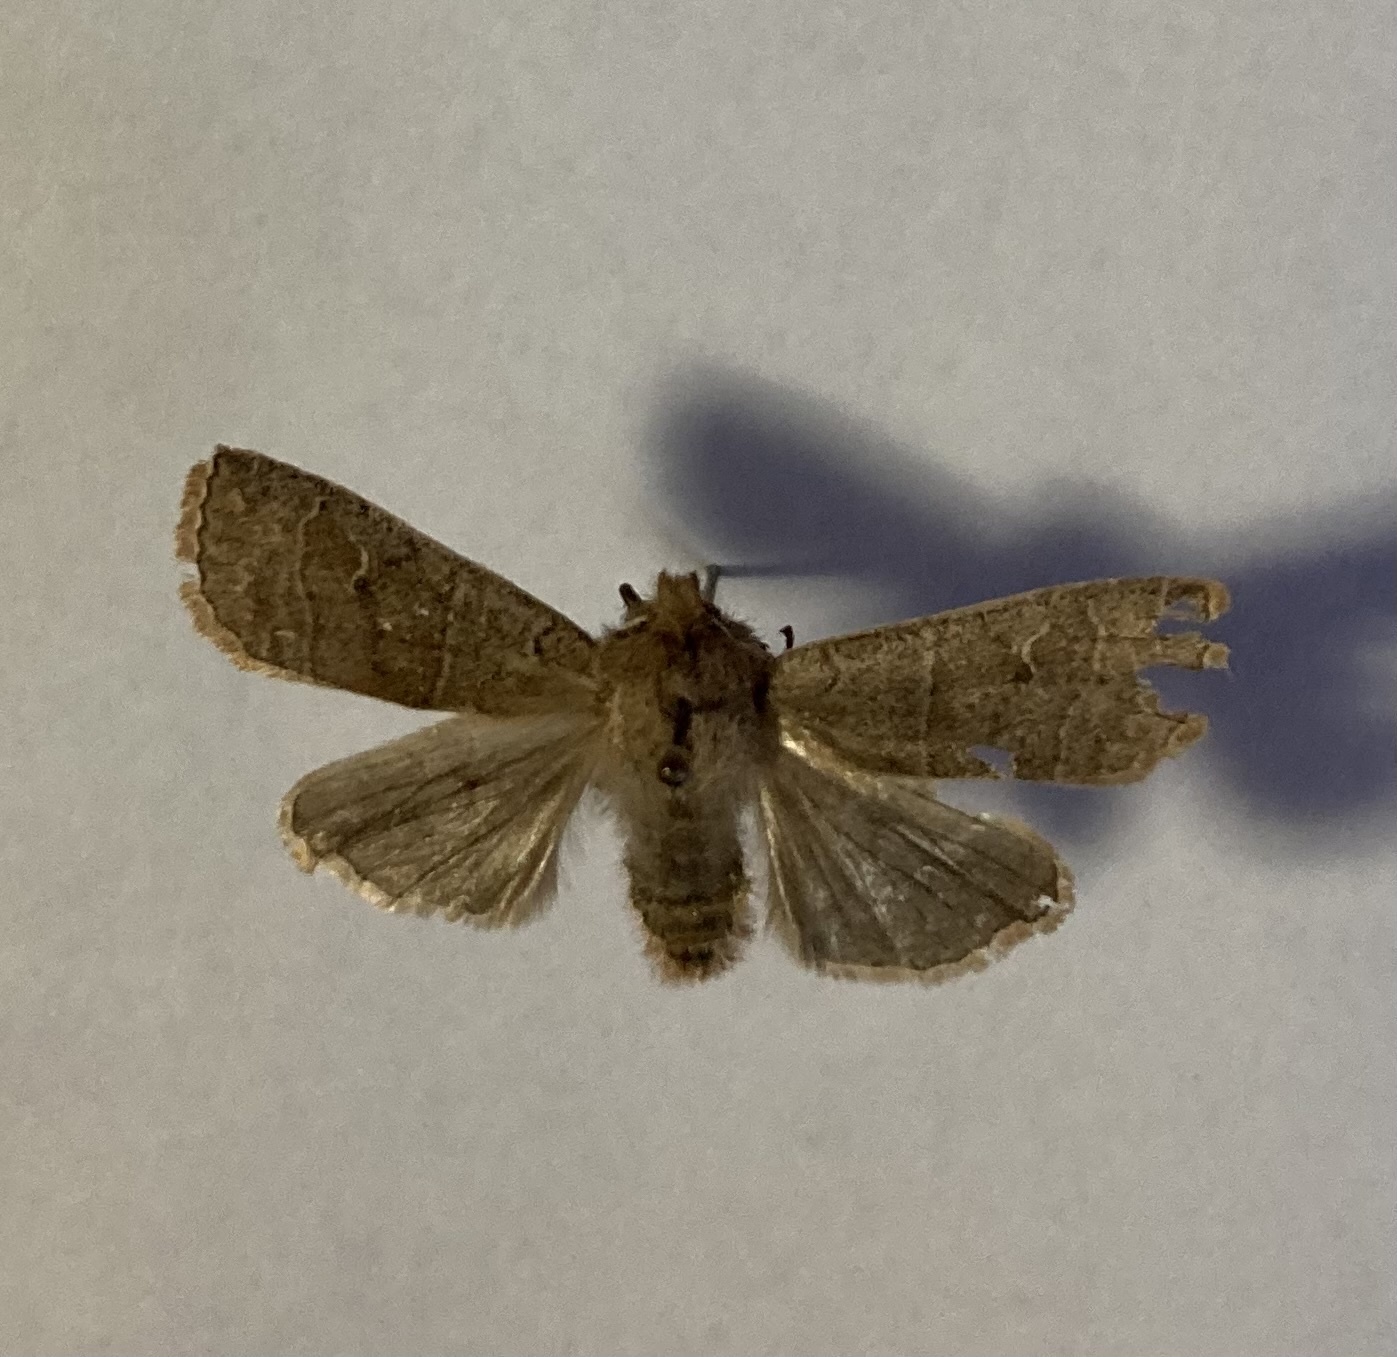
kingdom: Animalia
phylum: Arthropoda
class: Insecta
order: Lepidoptera
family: Noctuidae
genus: Eupsilia
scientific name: Eupsilia morrisoni
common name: Morrison's sallow
